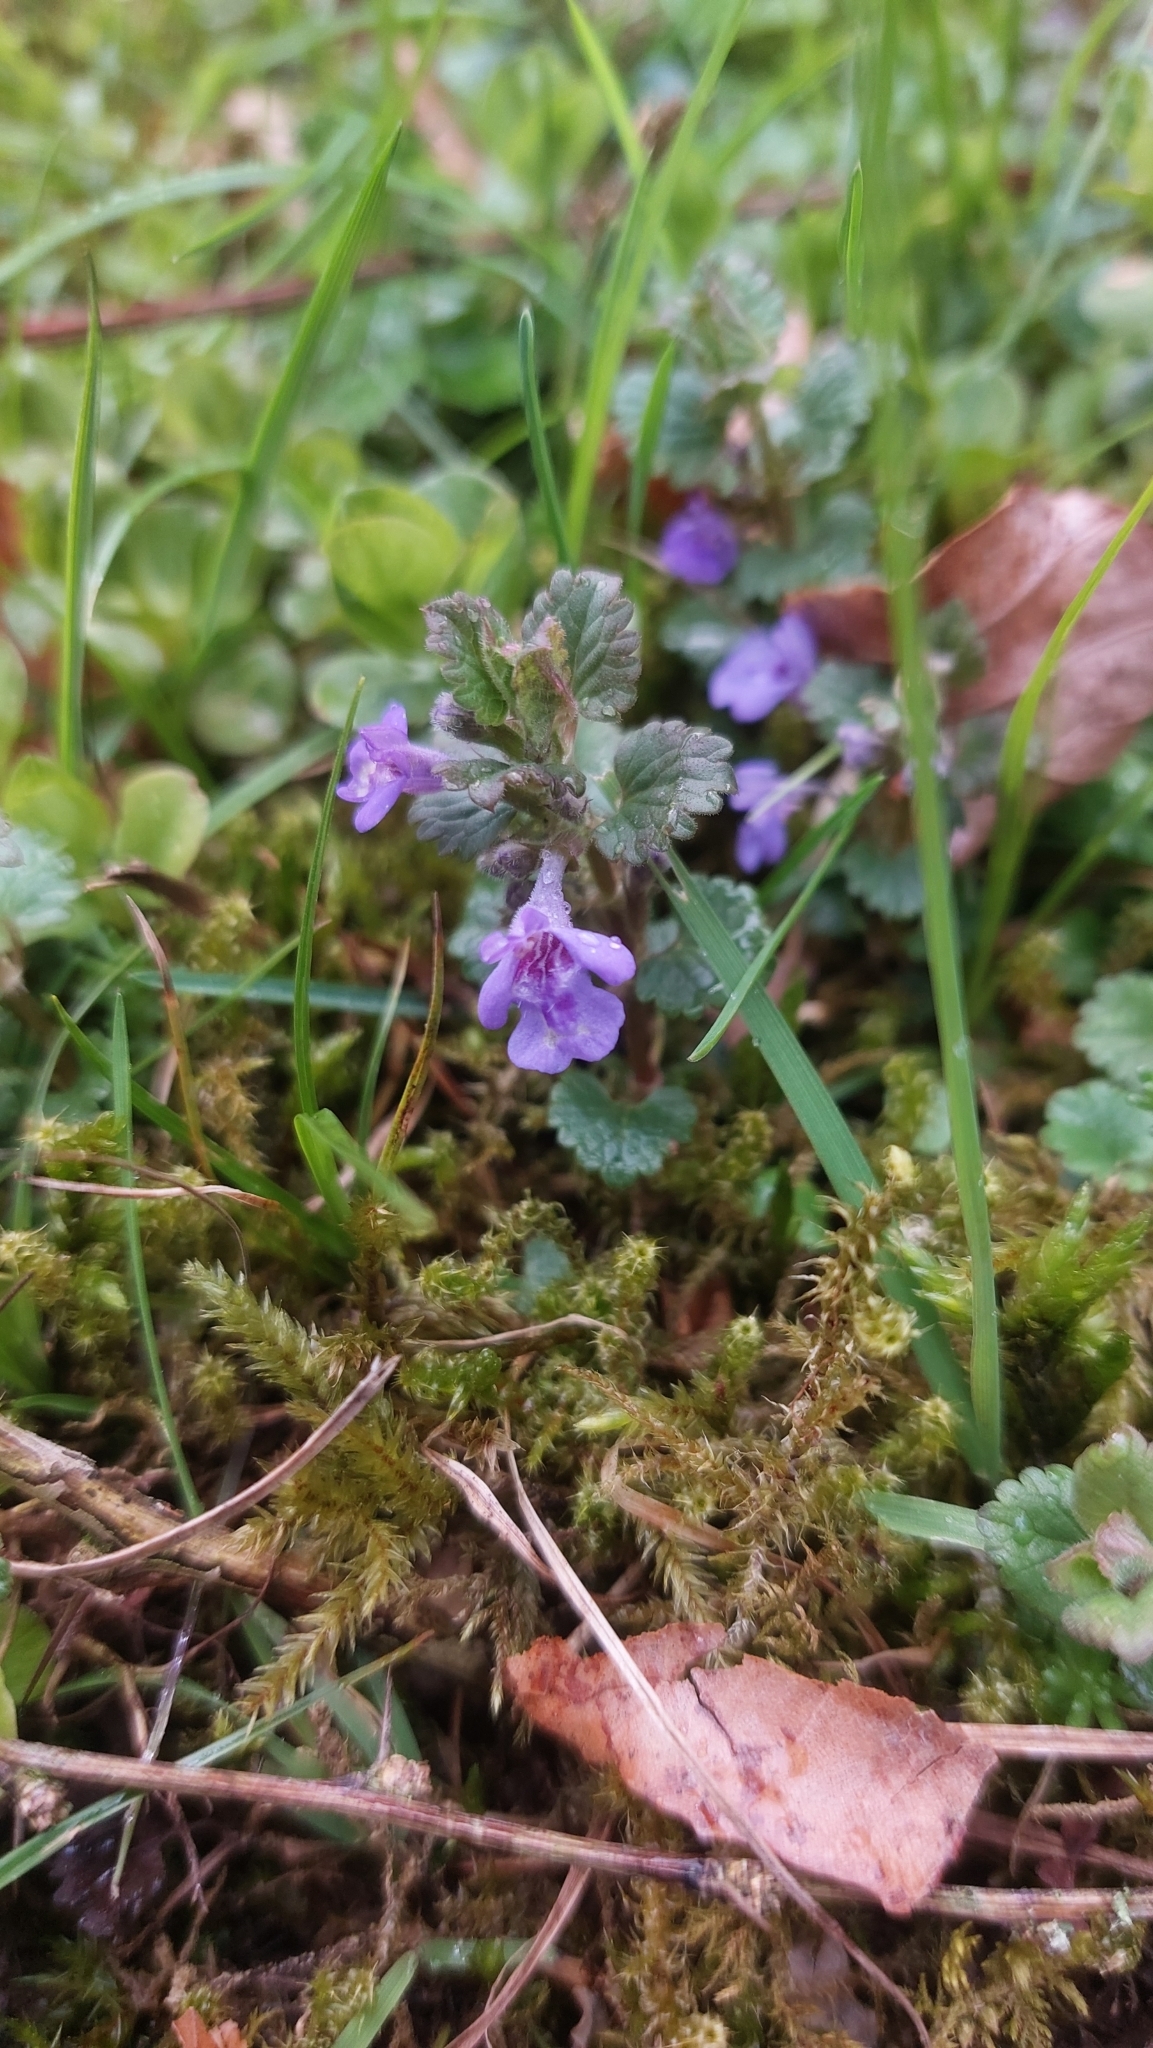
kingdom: Plantae
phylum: Tracheophyta
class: Magnoliopsida
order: Lamiales
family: Lamiaceae
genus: Glechoma
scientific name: Glechoma hederacea
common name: Ground ivy
